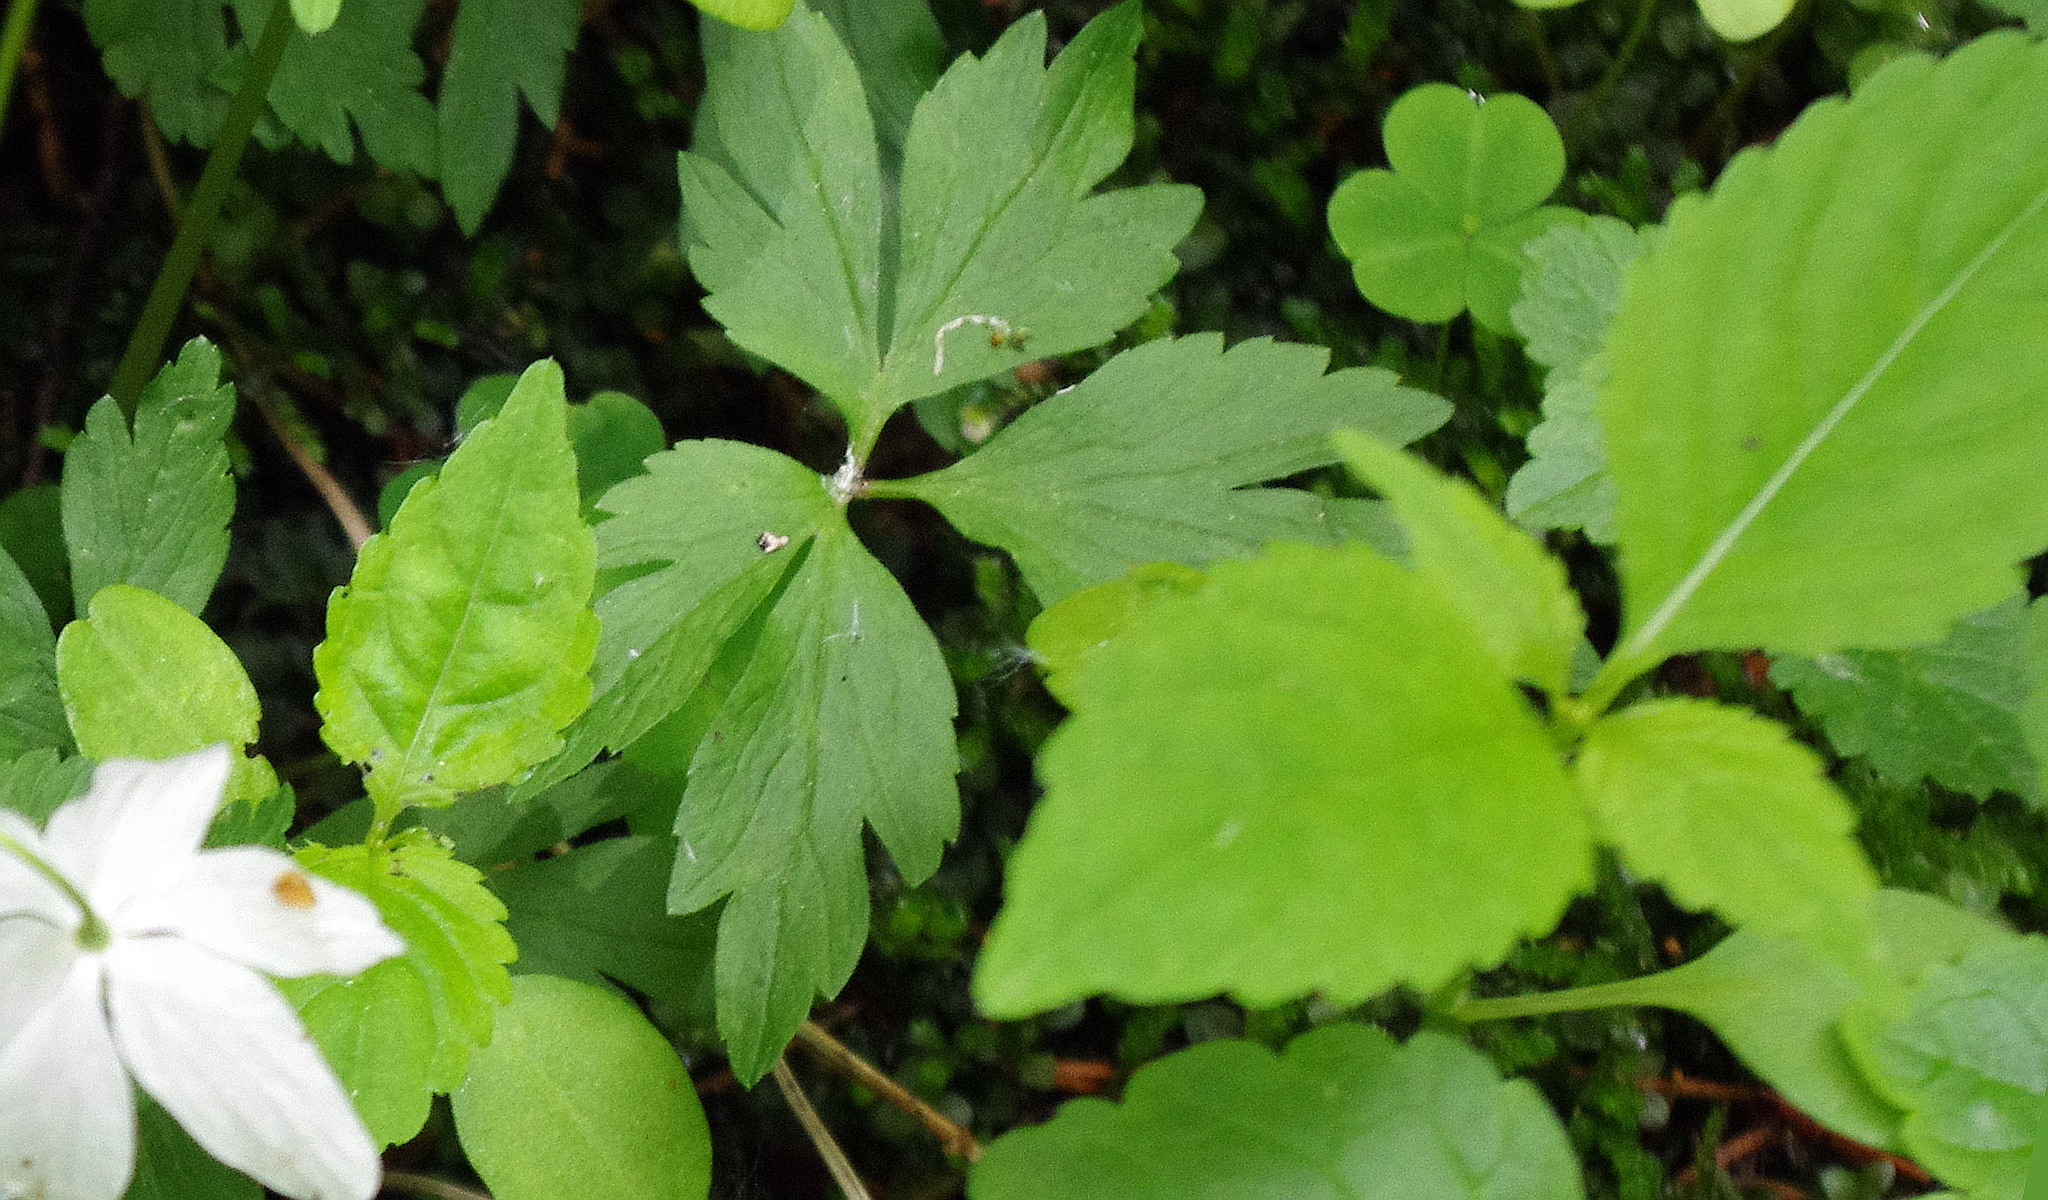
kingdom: Plantae
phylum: Tracheophyta
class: Magnoliopsida
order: Ericales
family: Balsaminaceae
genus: Impatiens
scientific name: Impatiens parviflora
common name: Small balsam
